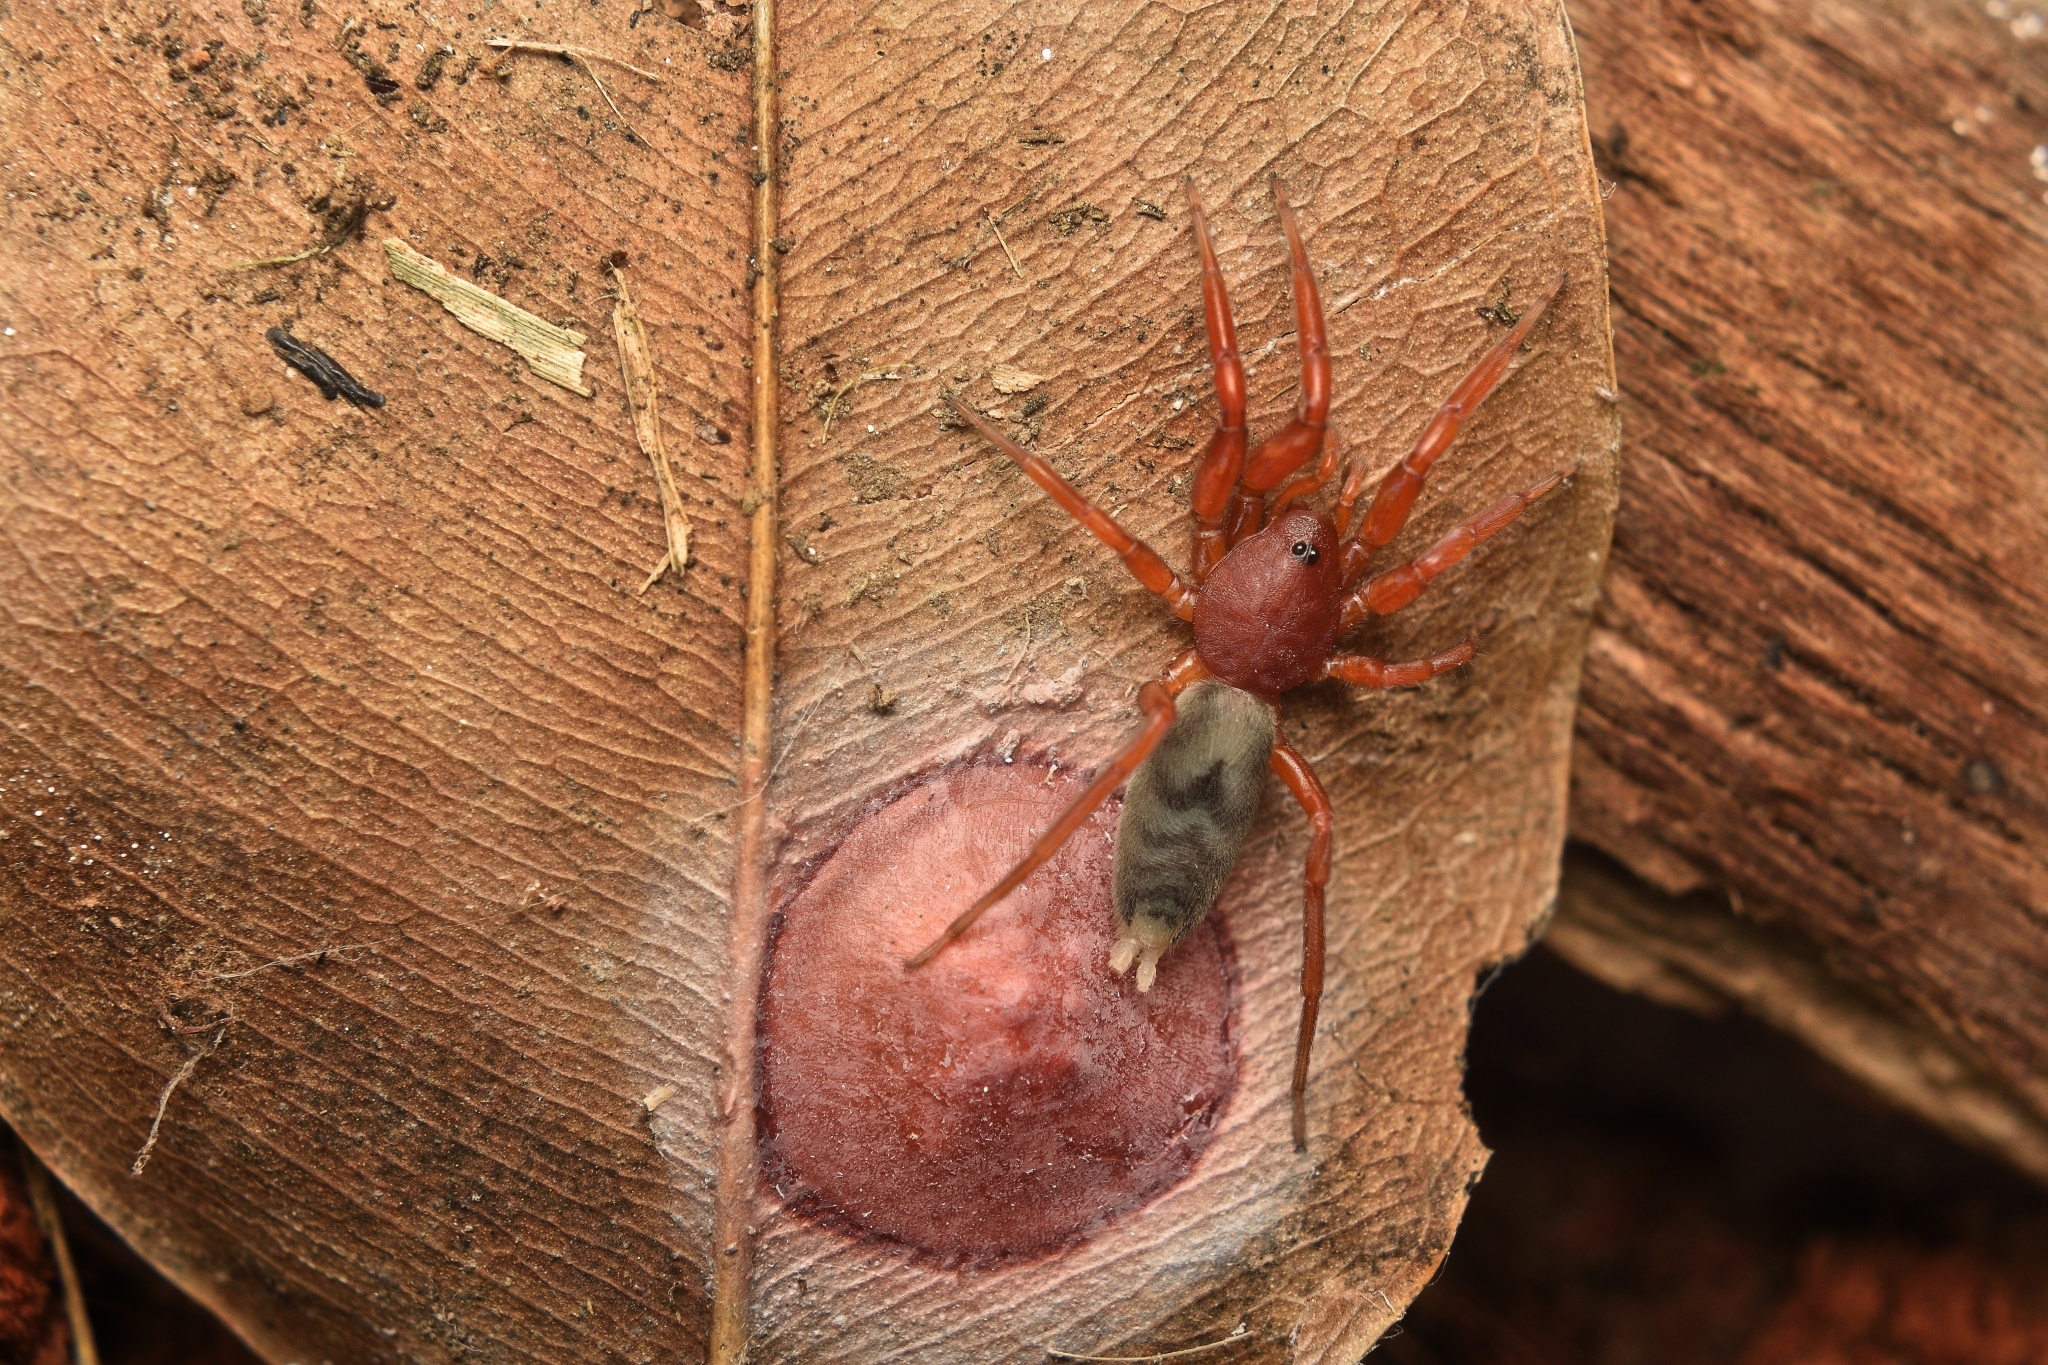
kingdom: Animalia
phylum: Arthropoda
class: Arachnida
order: Araneae
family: Caponiidae
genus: Nops
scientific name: Nops variabilis
